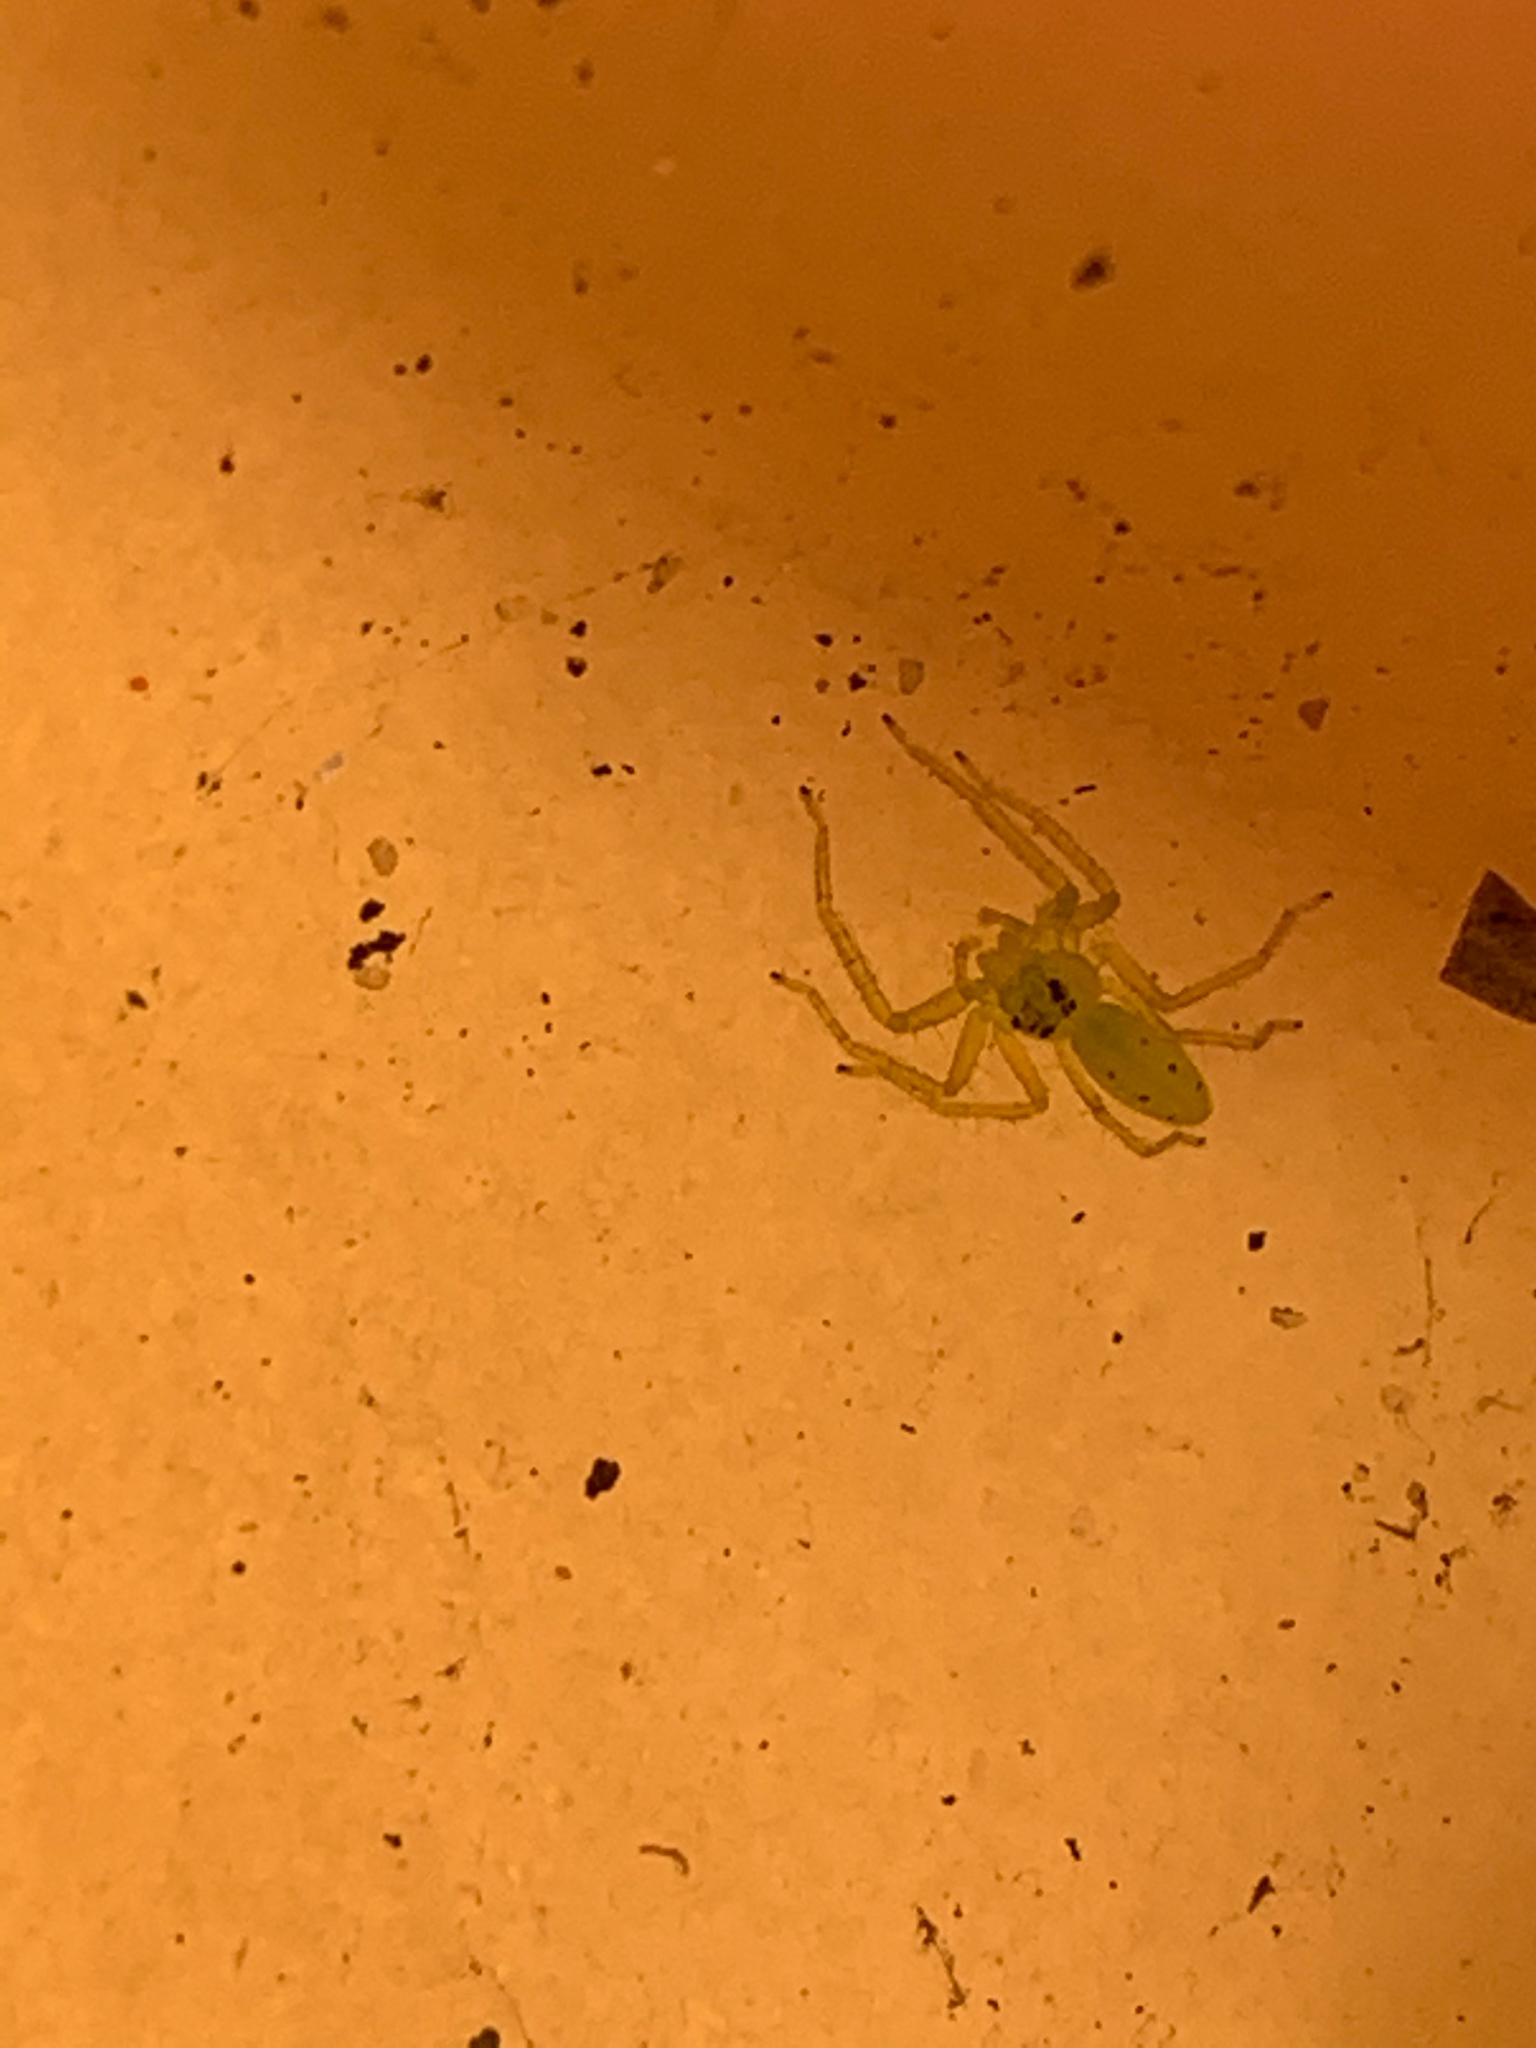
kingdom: Animalia
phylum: Arthropoda
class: Arachnida
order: Araneae
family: Salticidae
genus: Lyssomanes
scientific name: Lyssomanes viridis
